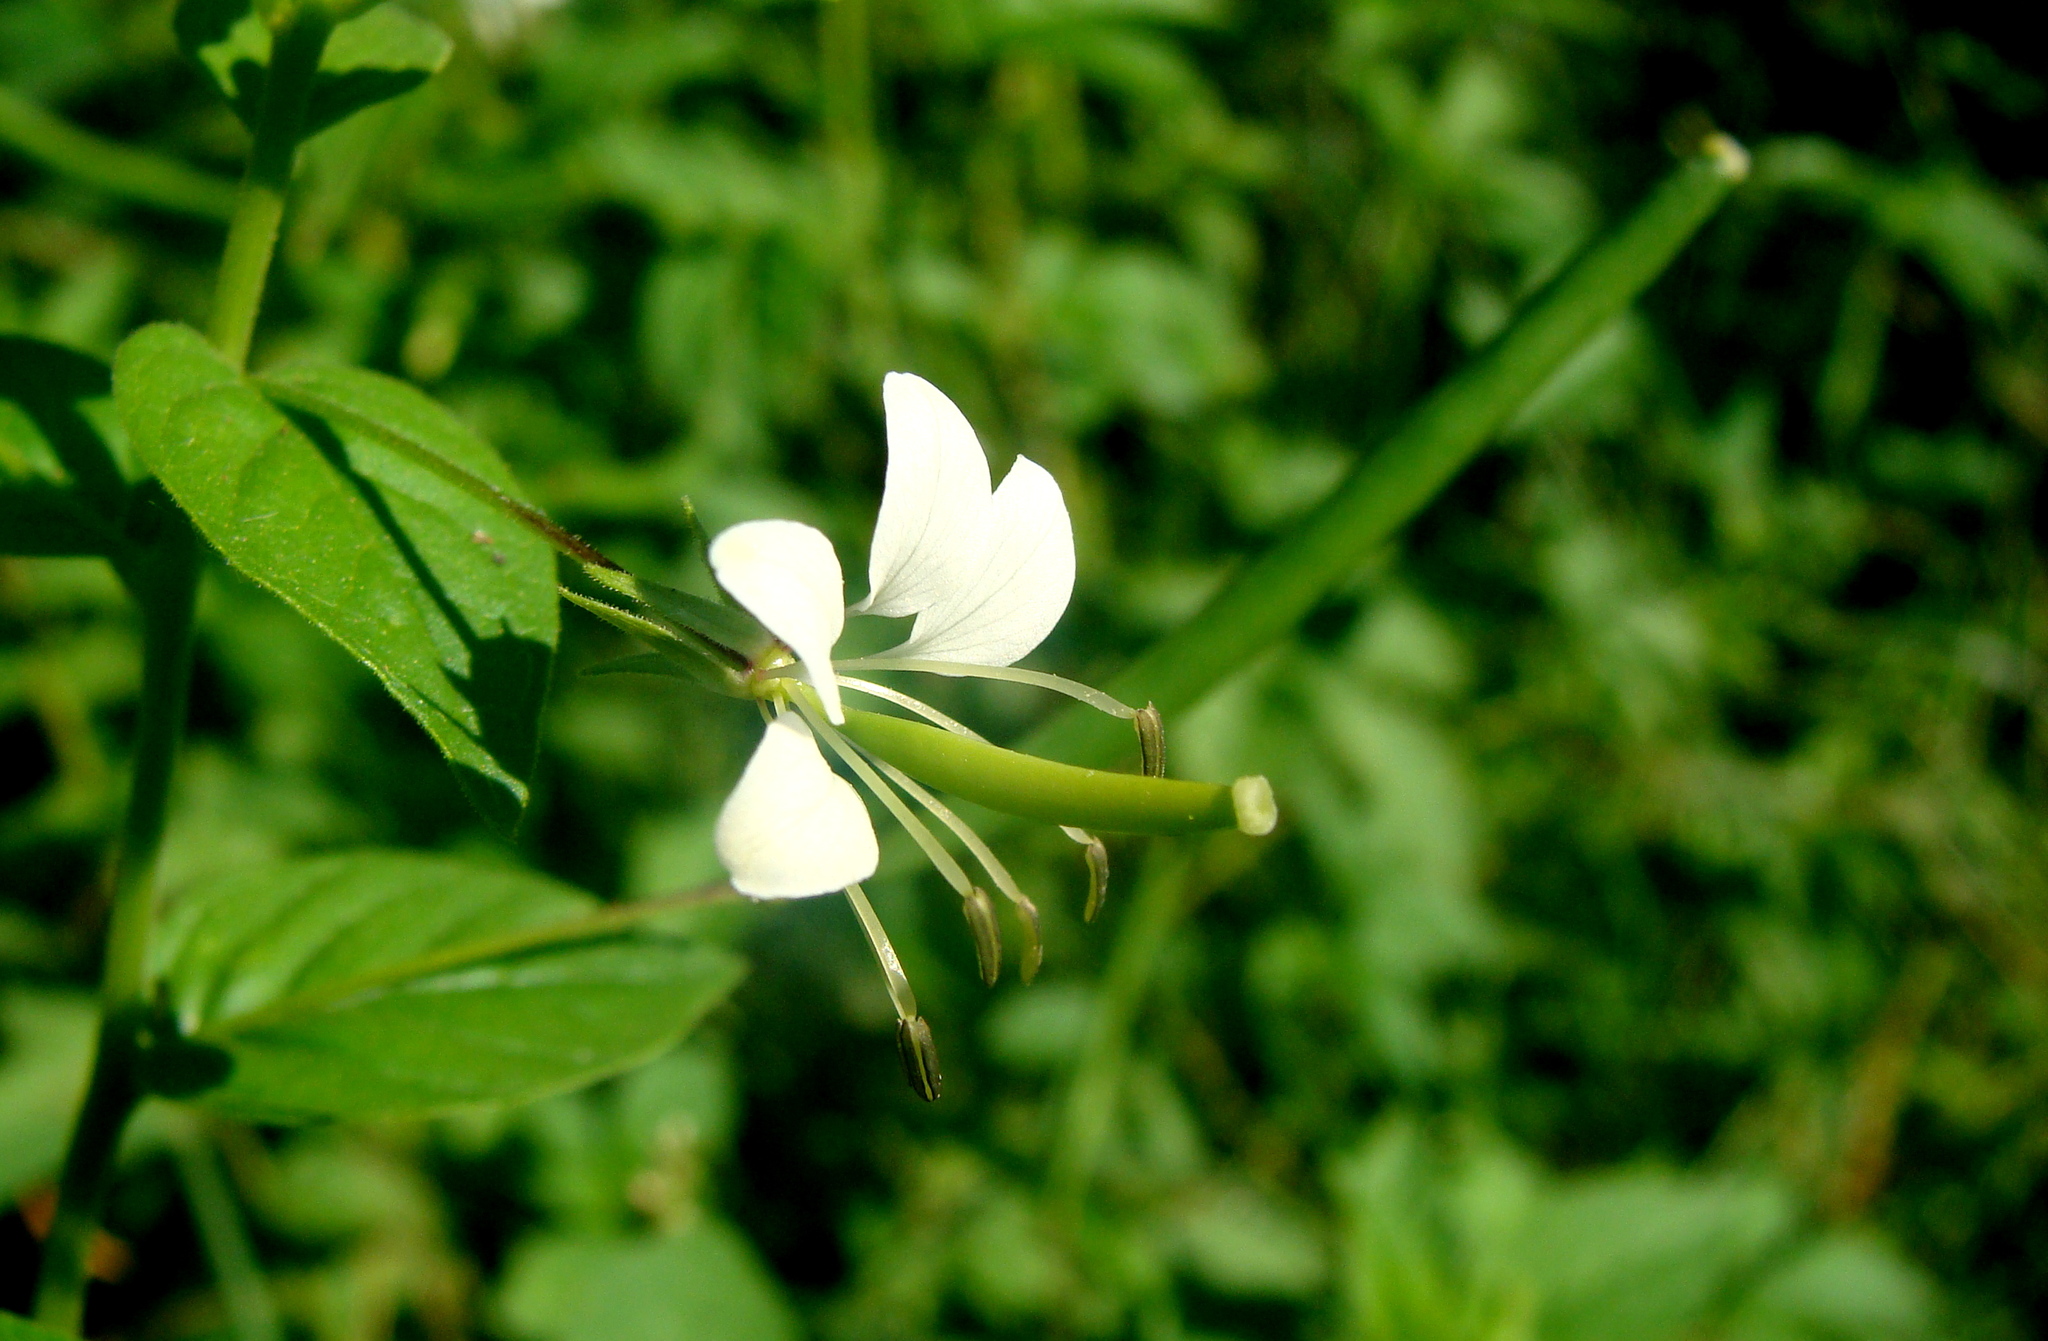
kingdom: Plantae
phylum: Tracheophyta
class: Magnoliopsida
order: Brassicales
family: Cleomaceae
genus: Cleoserrata
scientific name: Cleoserrata serrata
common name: Toothed spiderflower
